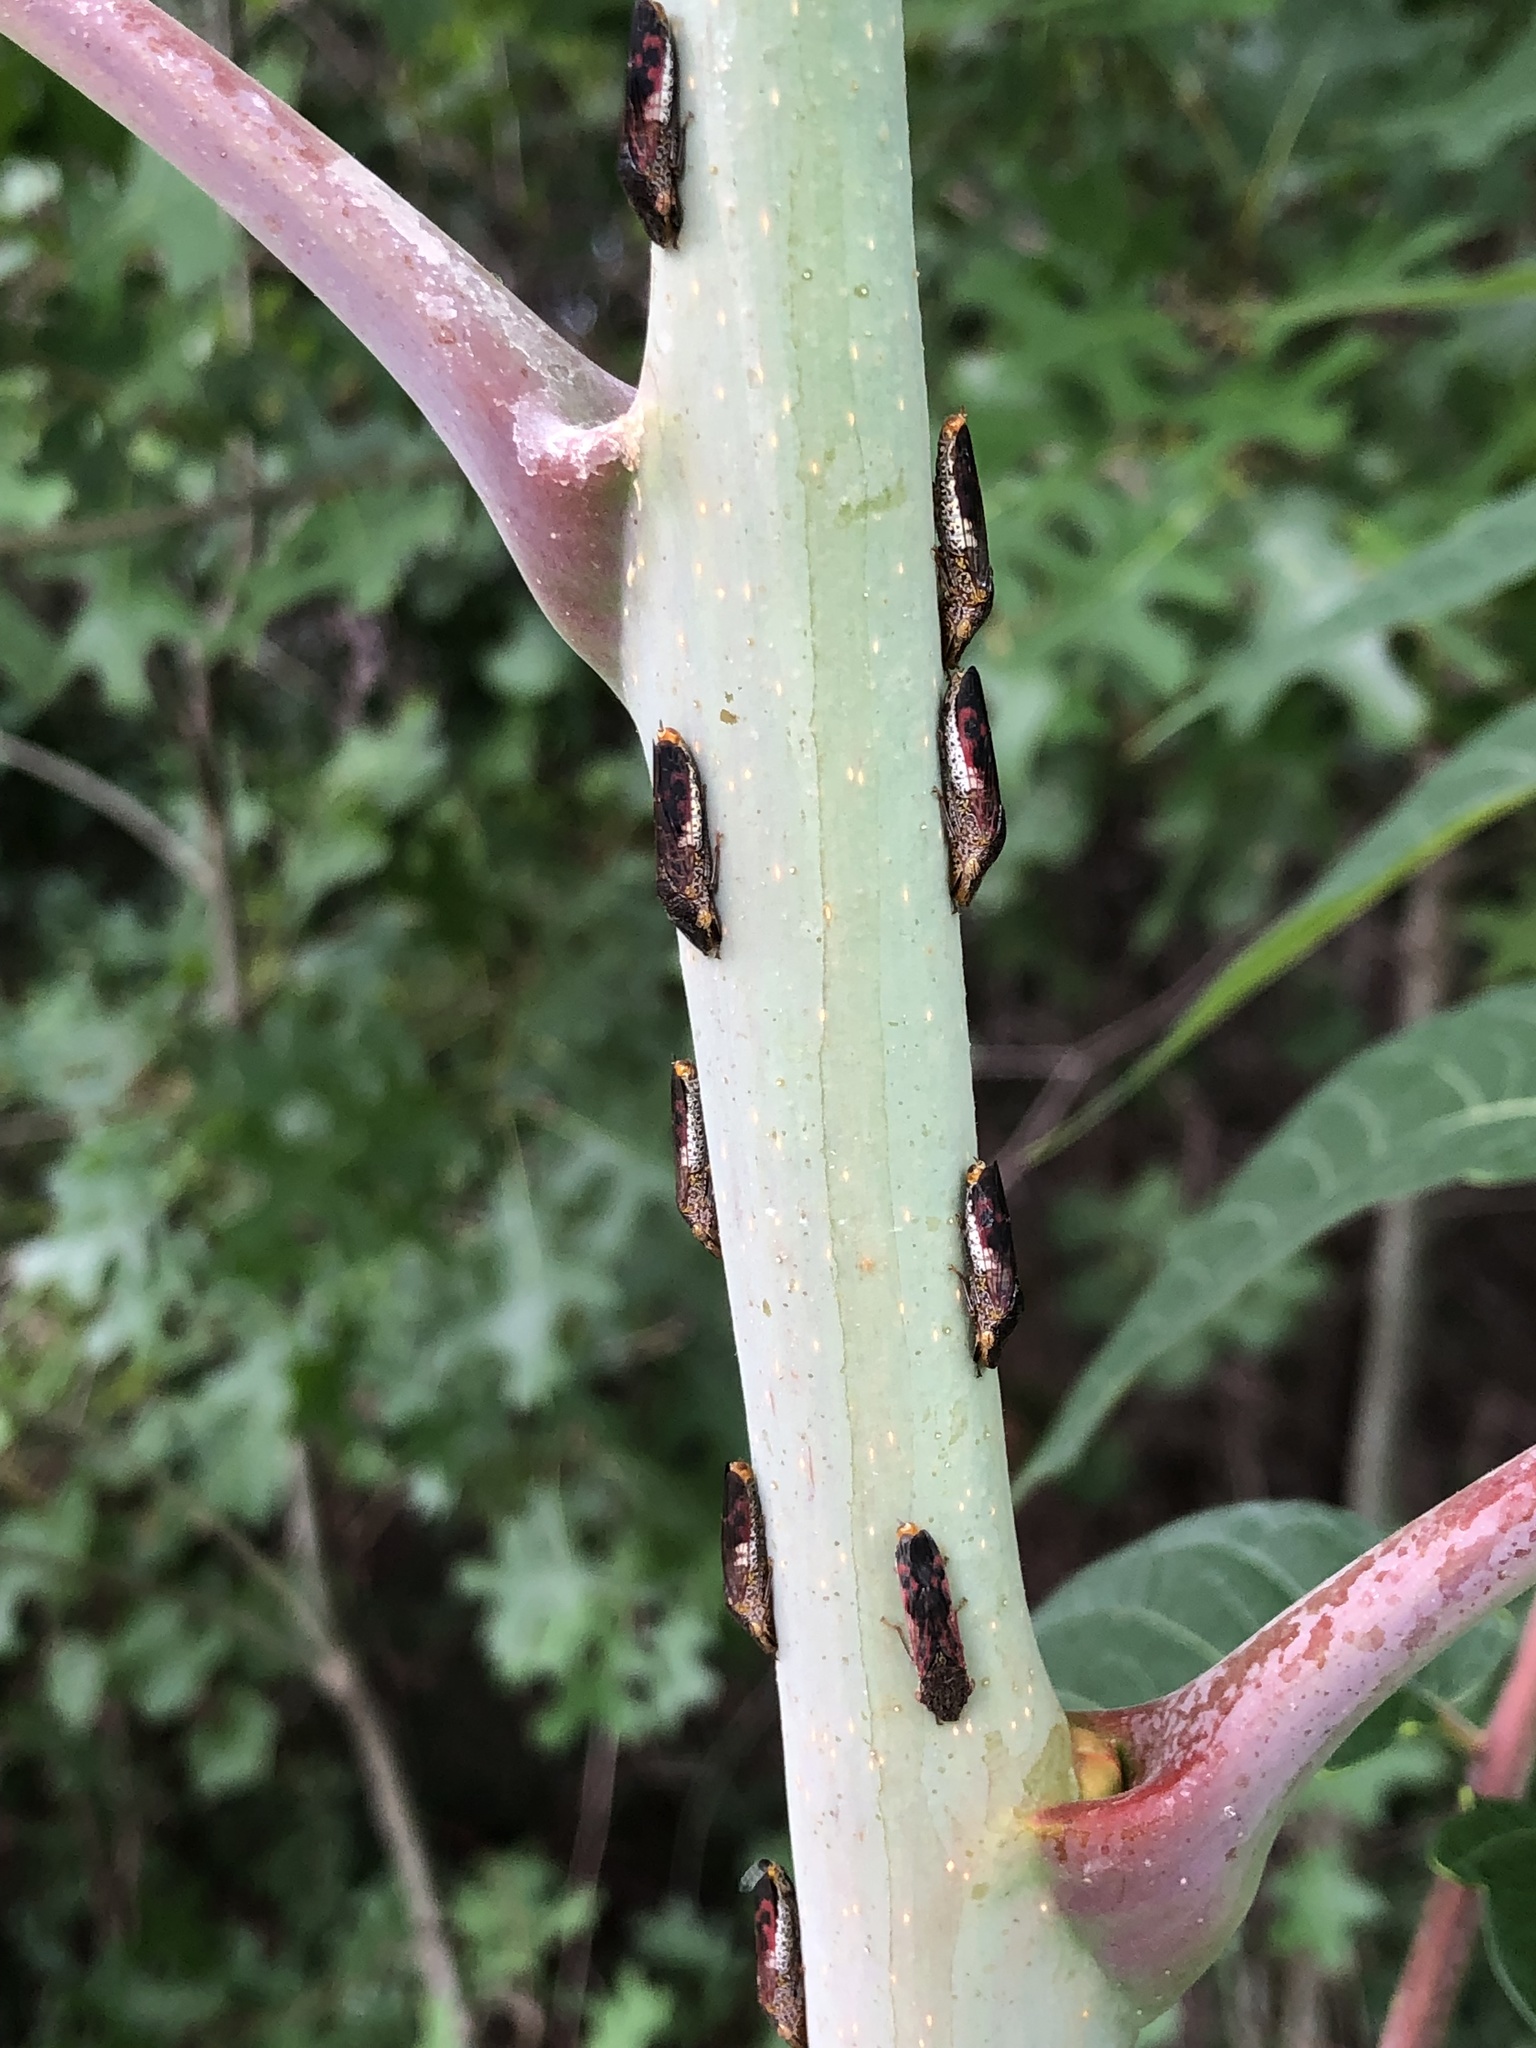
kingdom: Animalia
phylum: Arthropoda
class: Insecta
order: Hemiptera
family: Cicadellidae
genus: Homalodisca
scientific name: Homalodisca vitripennis
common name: Glassy-winged sharpshooter
